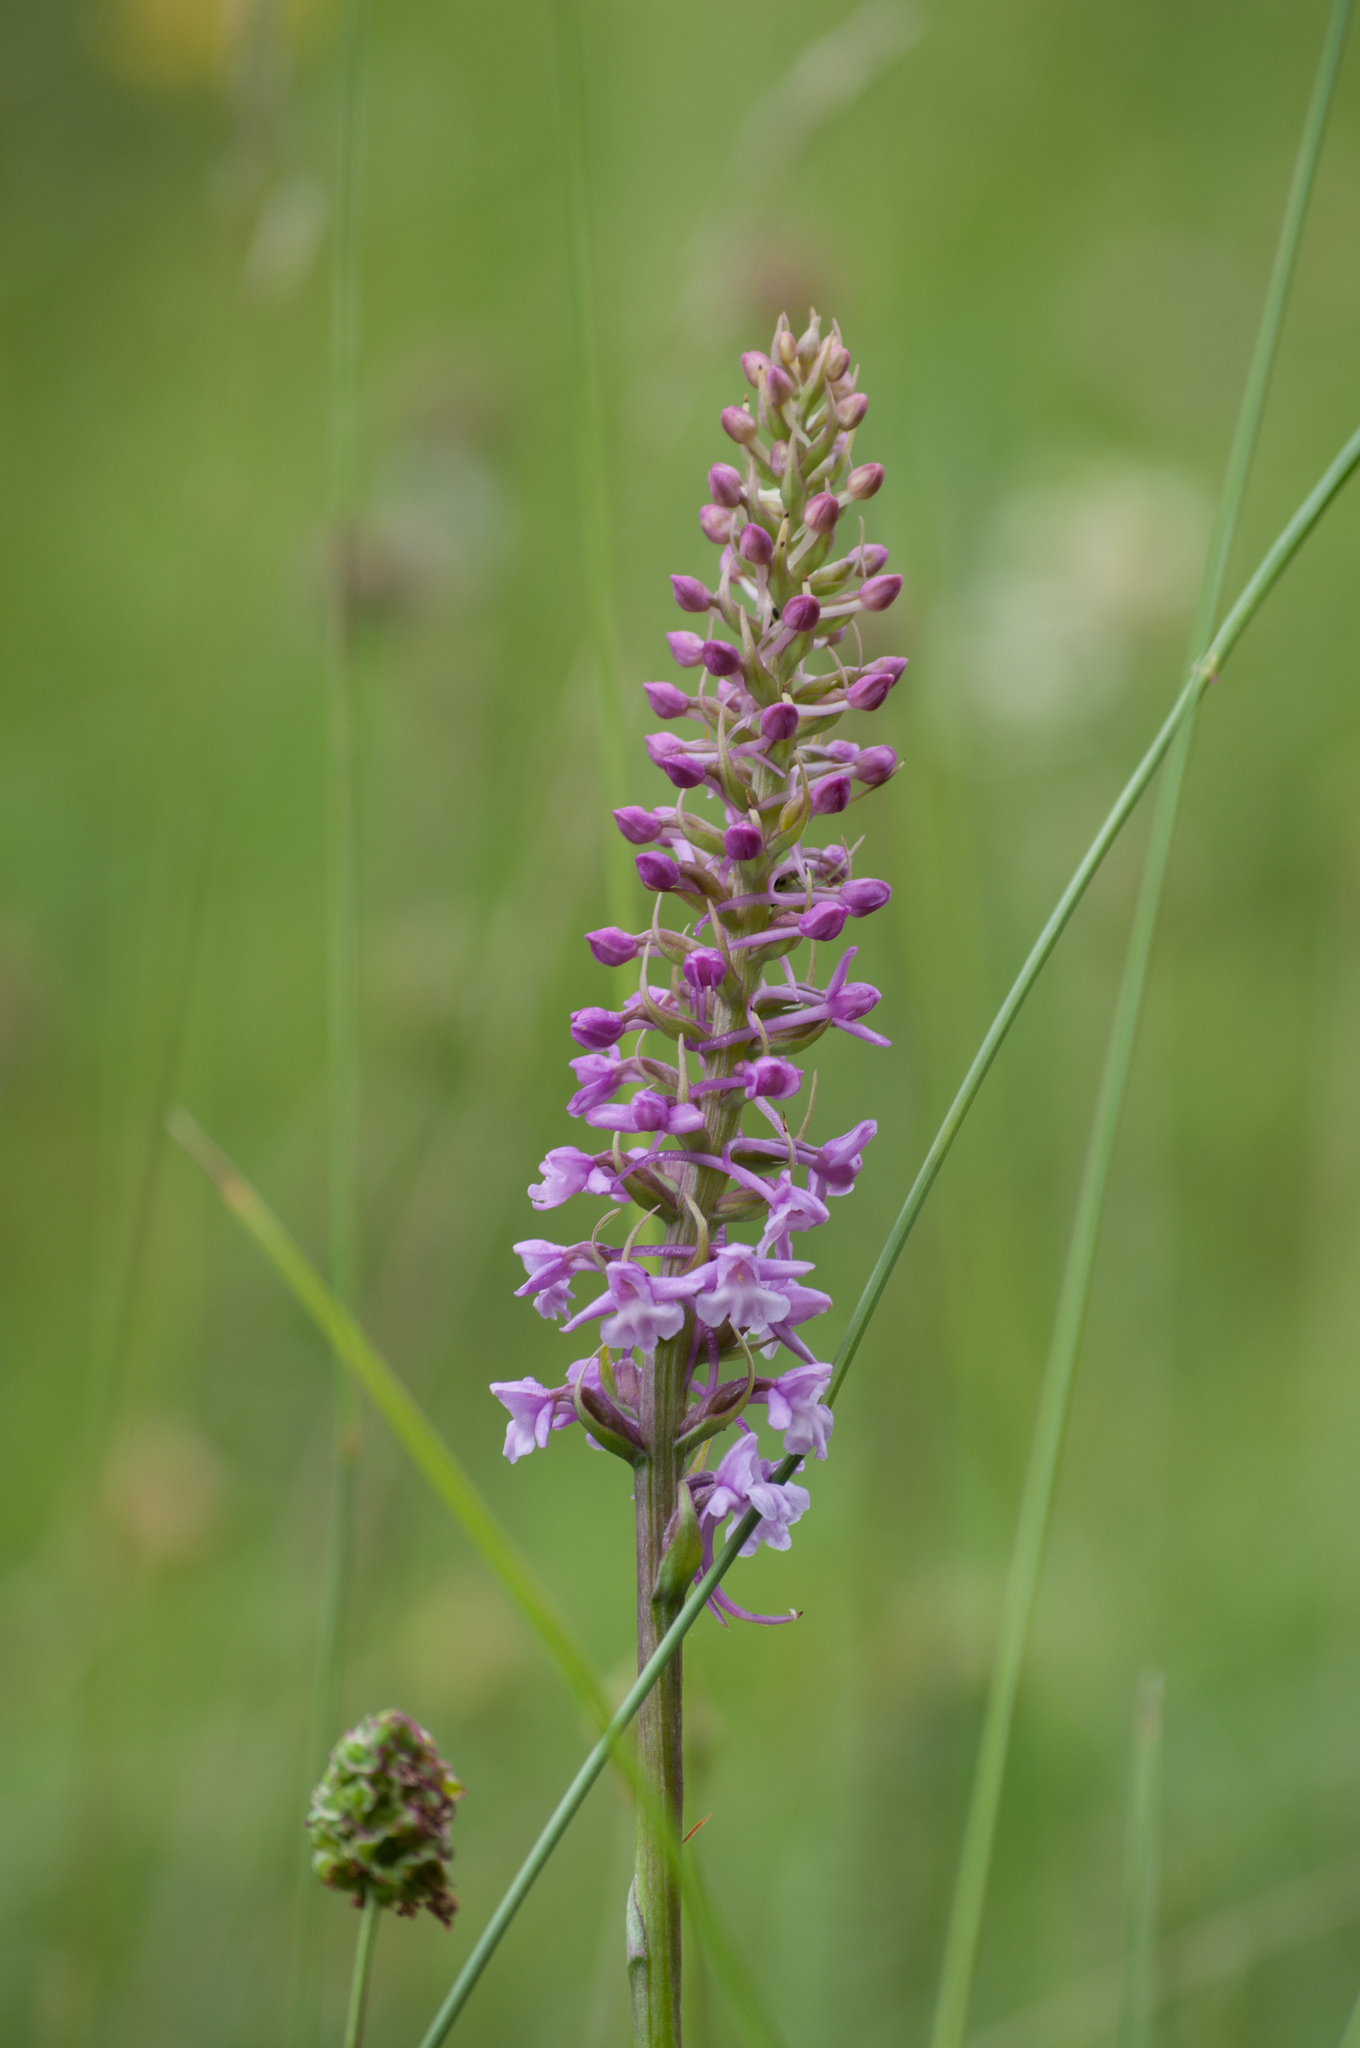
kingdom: Plantae
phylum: Tracheophyta
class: Liliopsida
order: Asparagales
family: Orchidaceae
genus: Gymnadenia
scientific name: Gymnadenia conopsea
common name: Fragrant orchid
